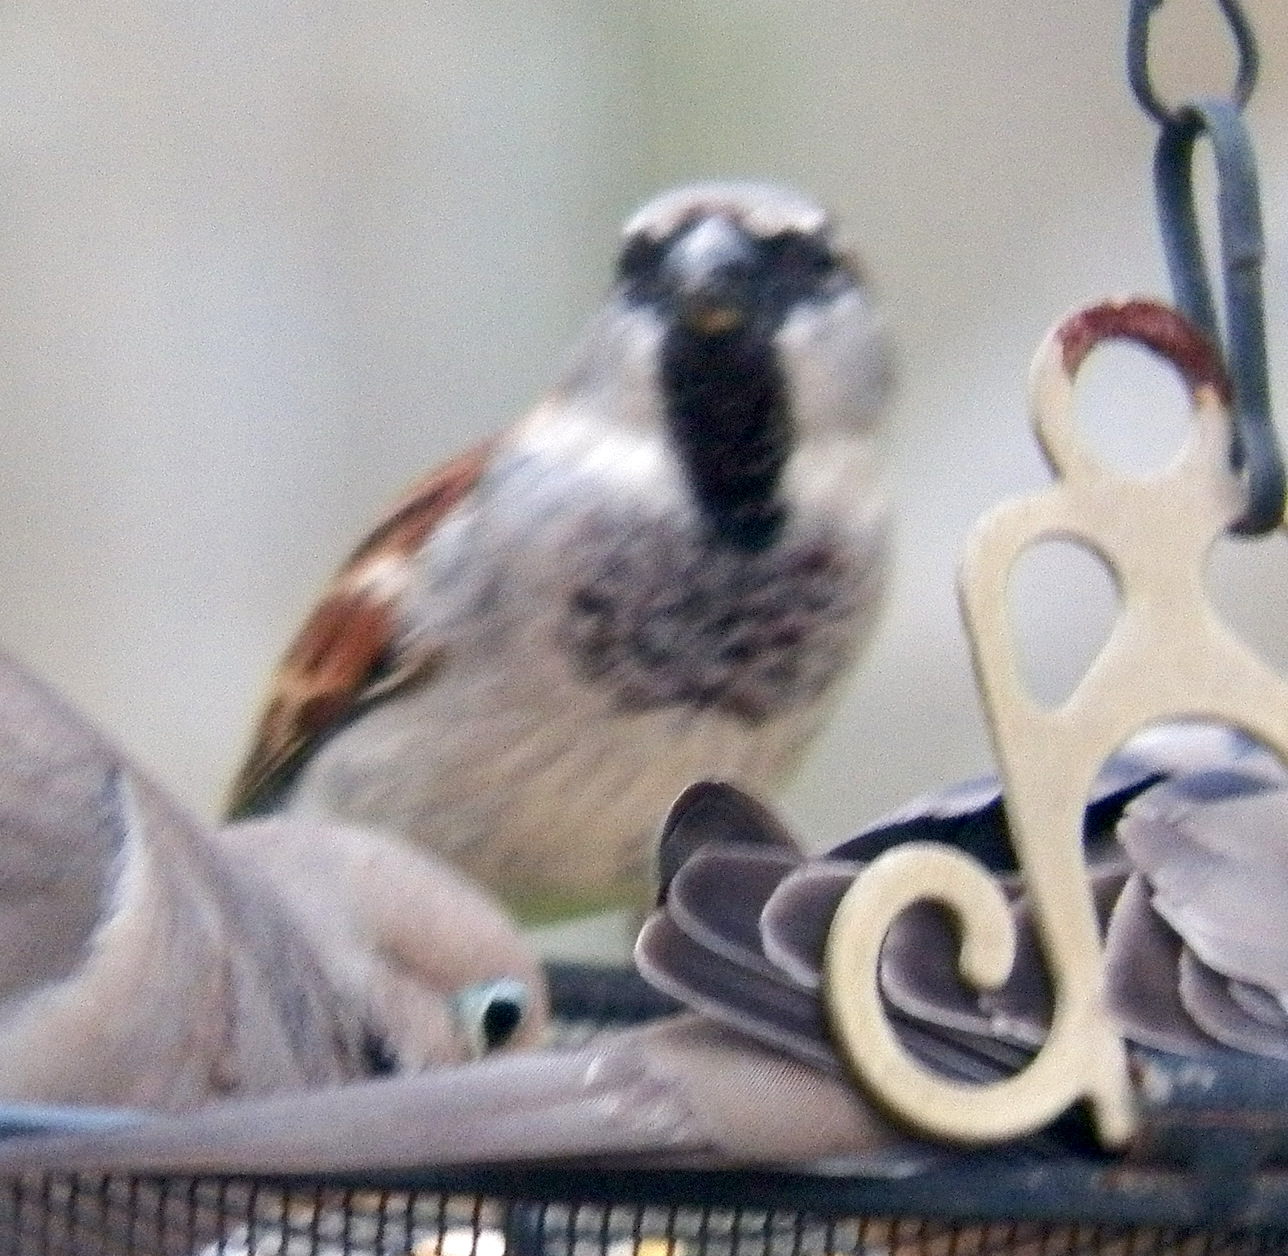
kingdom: Animalia
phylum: Chordata
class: Aves
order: Passeriformes
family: Passeridae
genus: Passer
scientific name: Passer domesticus
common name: House sparrow
